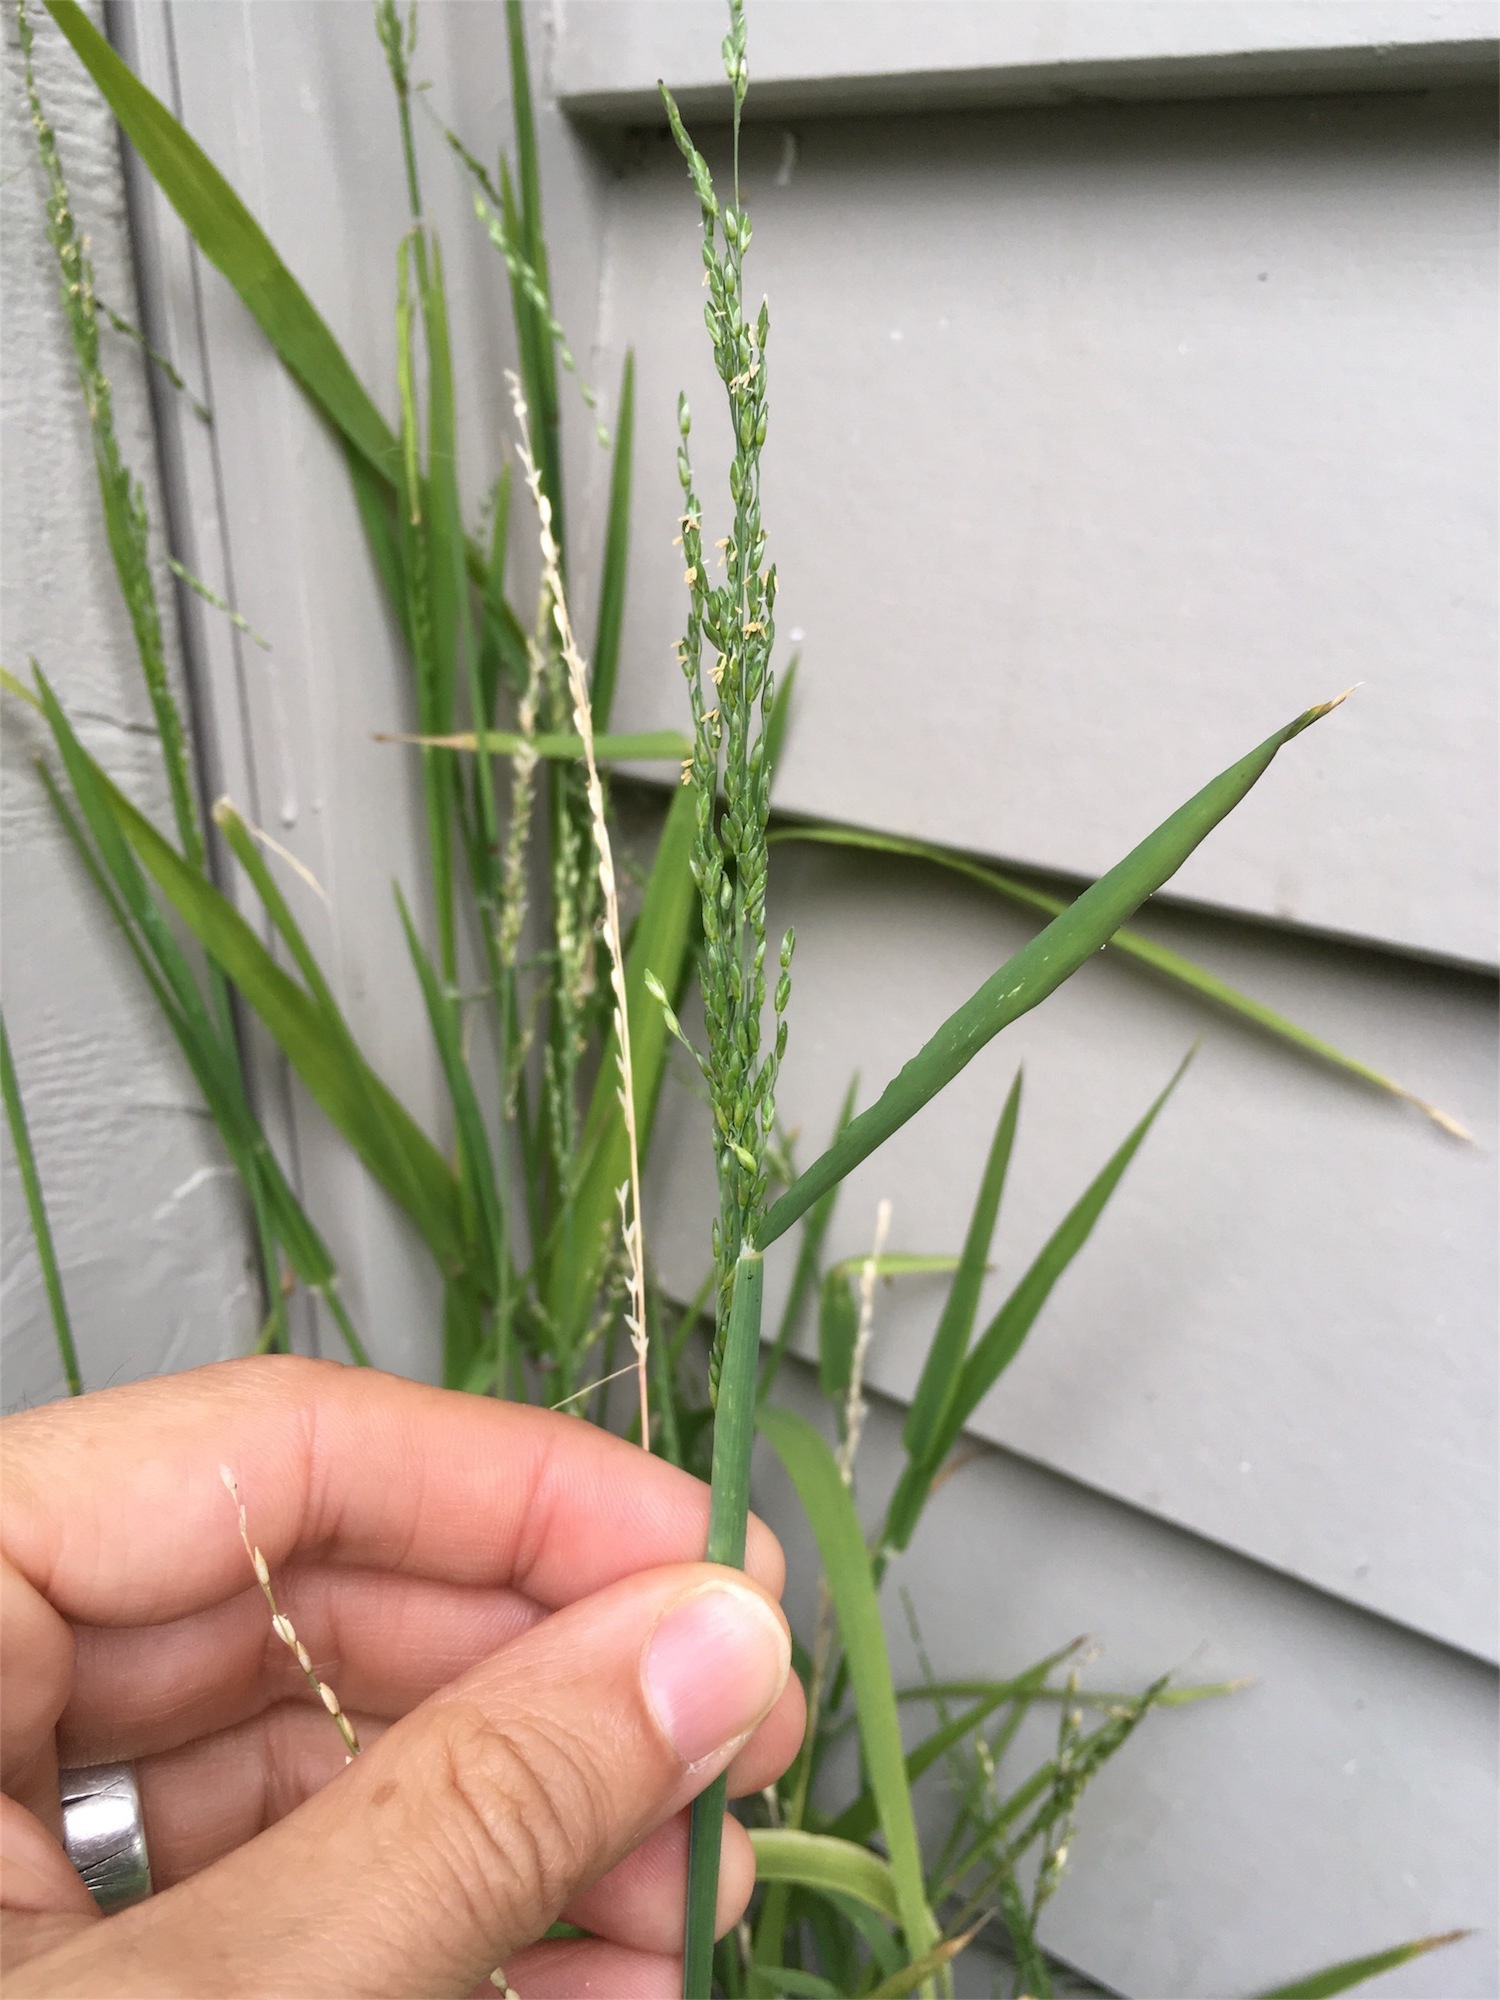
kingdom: Plantae
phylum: Tracheophyta
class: Liliopsida
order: Poales
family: Poaceae
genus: Ehrharta
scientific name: Ehrharta erecta
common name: Panic veldtgrass
